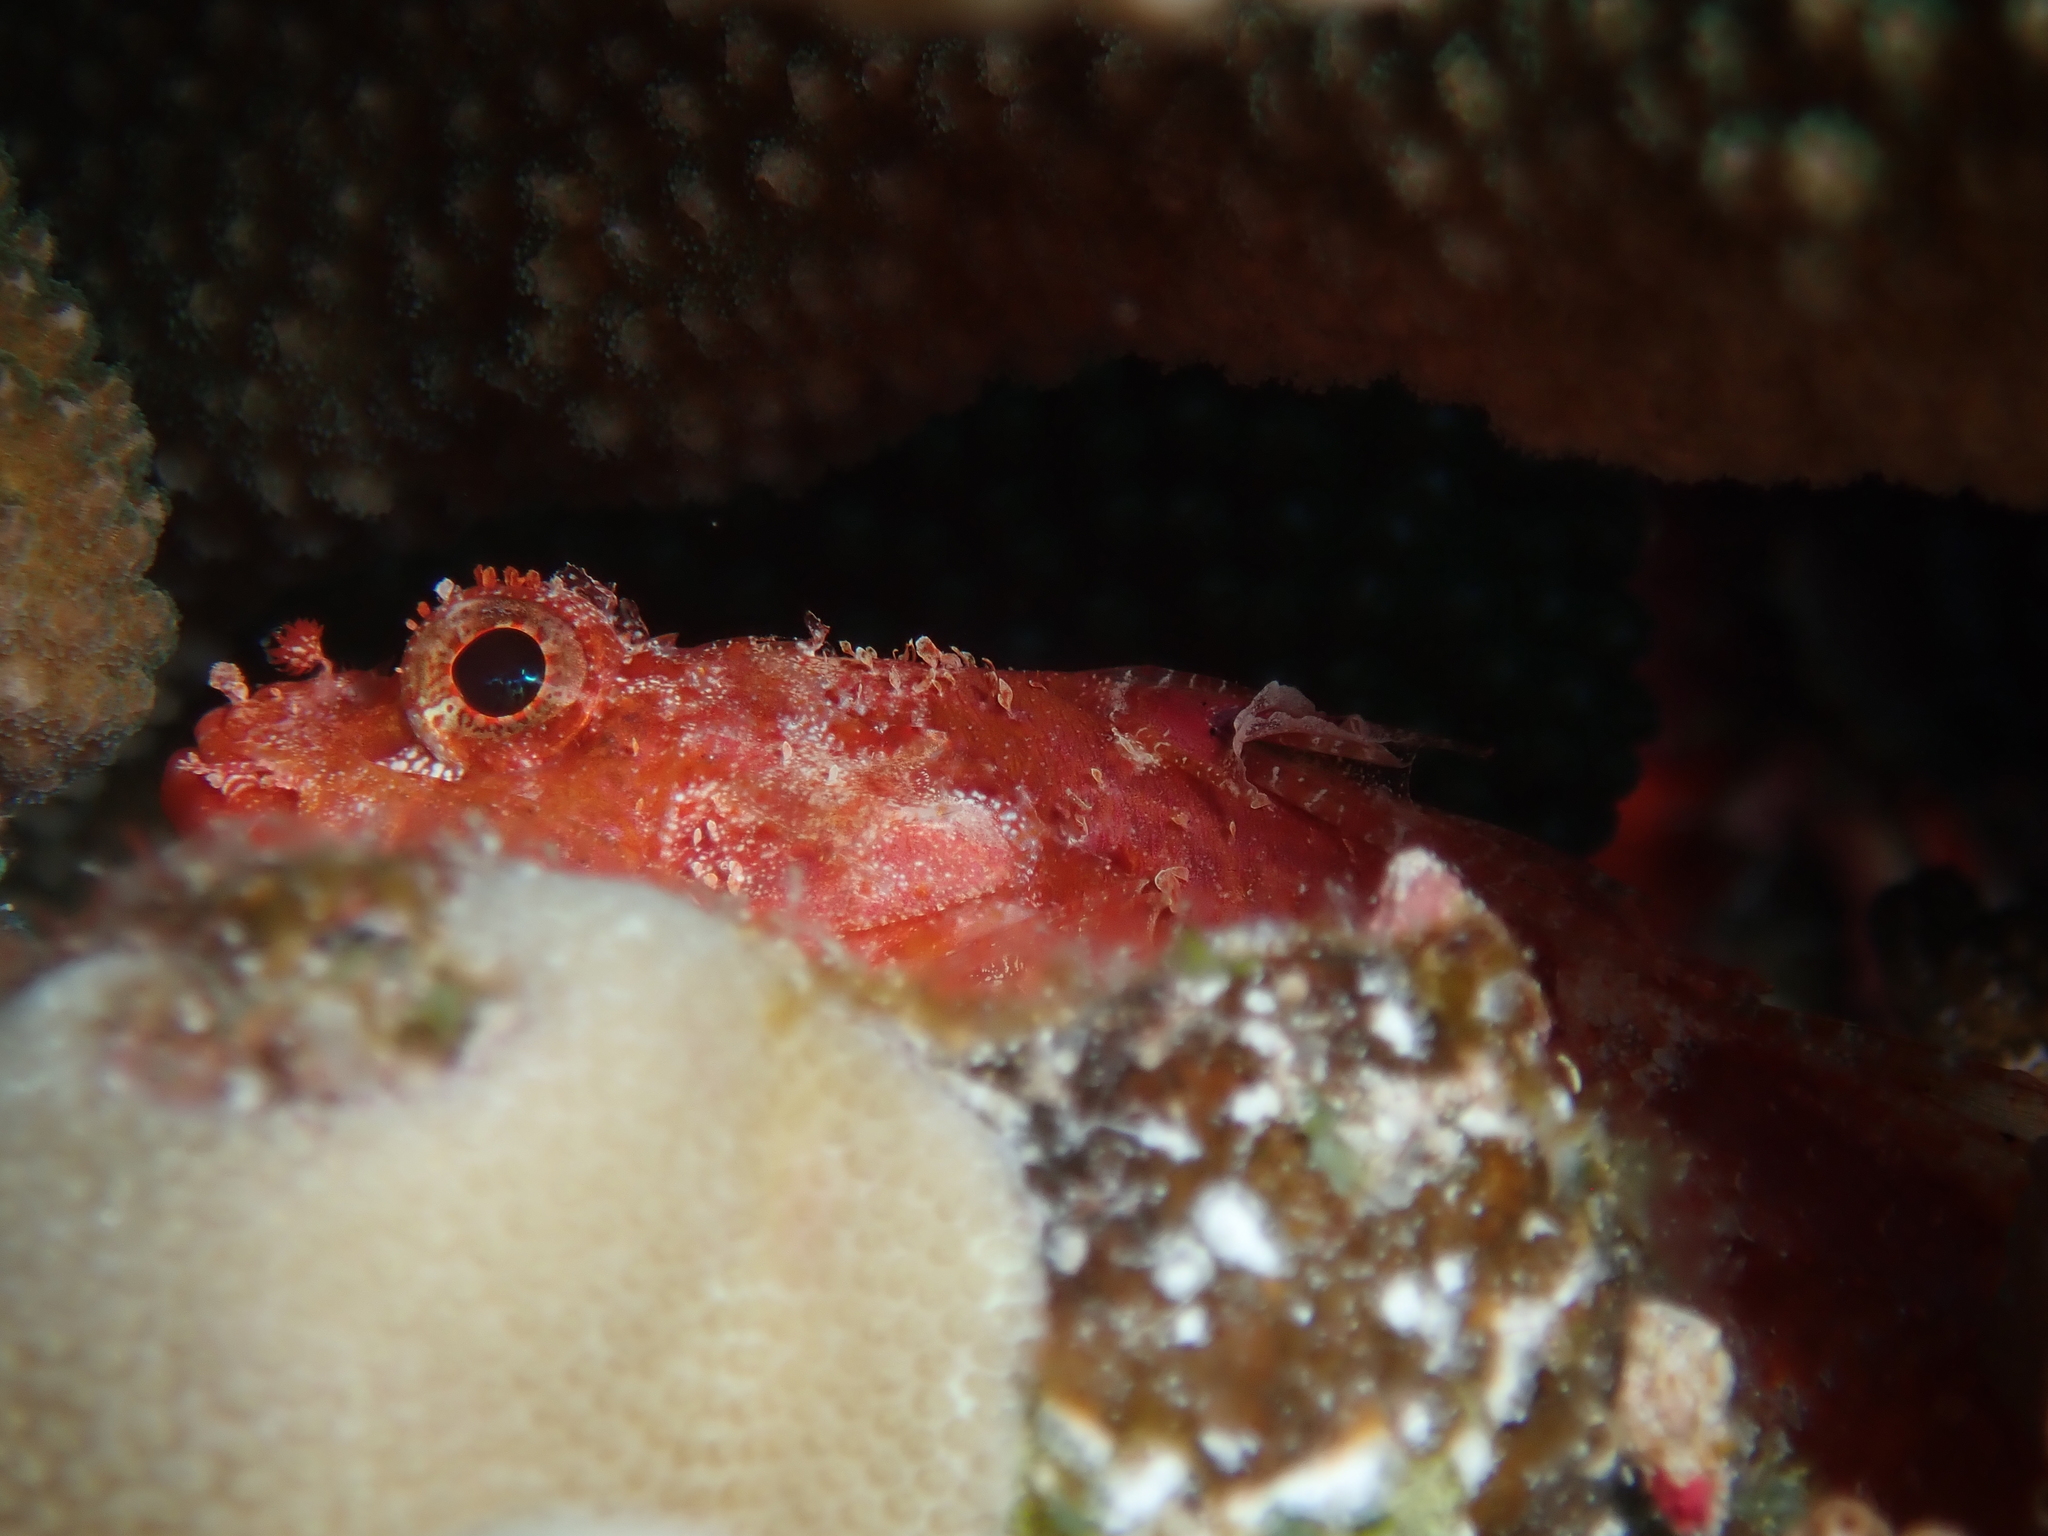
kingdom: Animalia
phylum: Chordata
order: Scorpaeniformes
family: Scorpaenidae
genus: Iracundus
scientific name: Iracundus signifer
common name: Decoy scorpionfish
